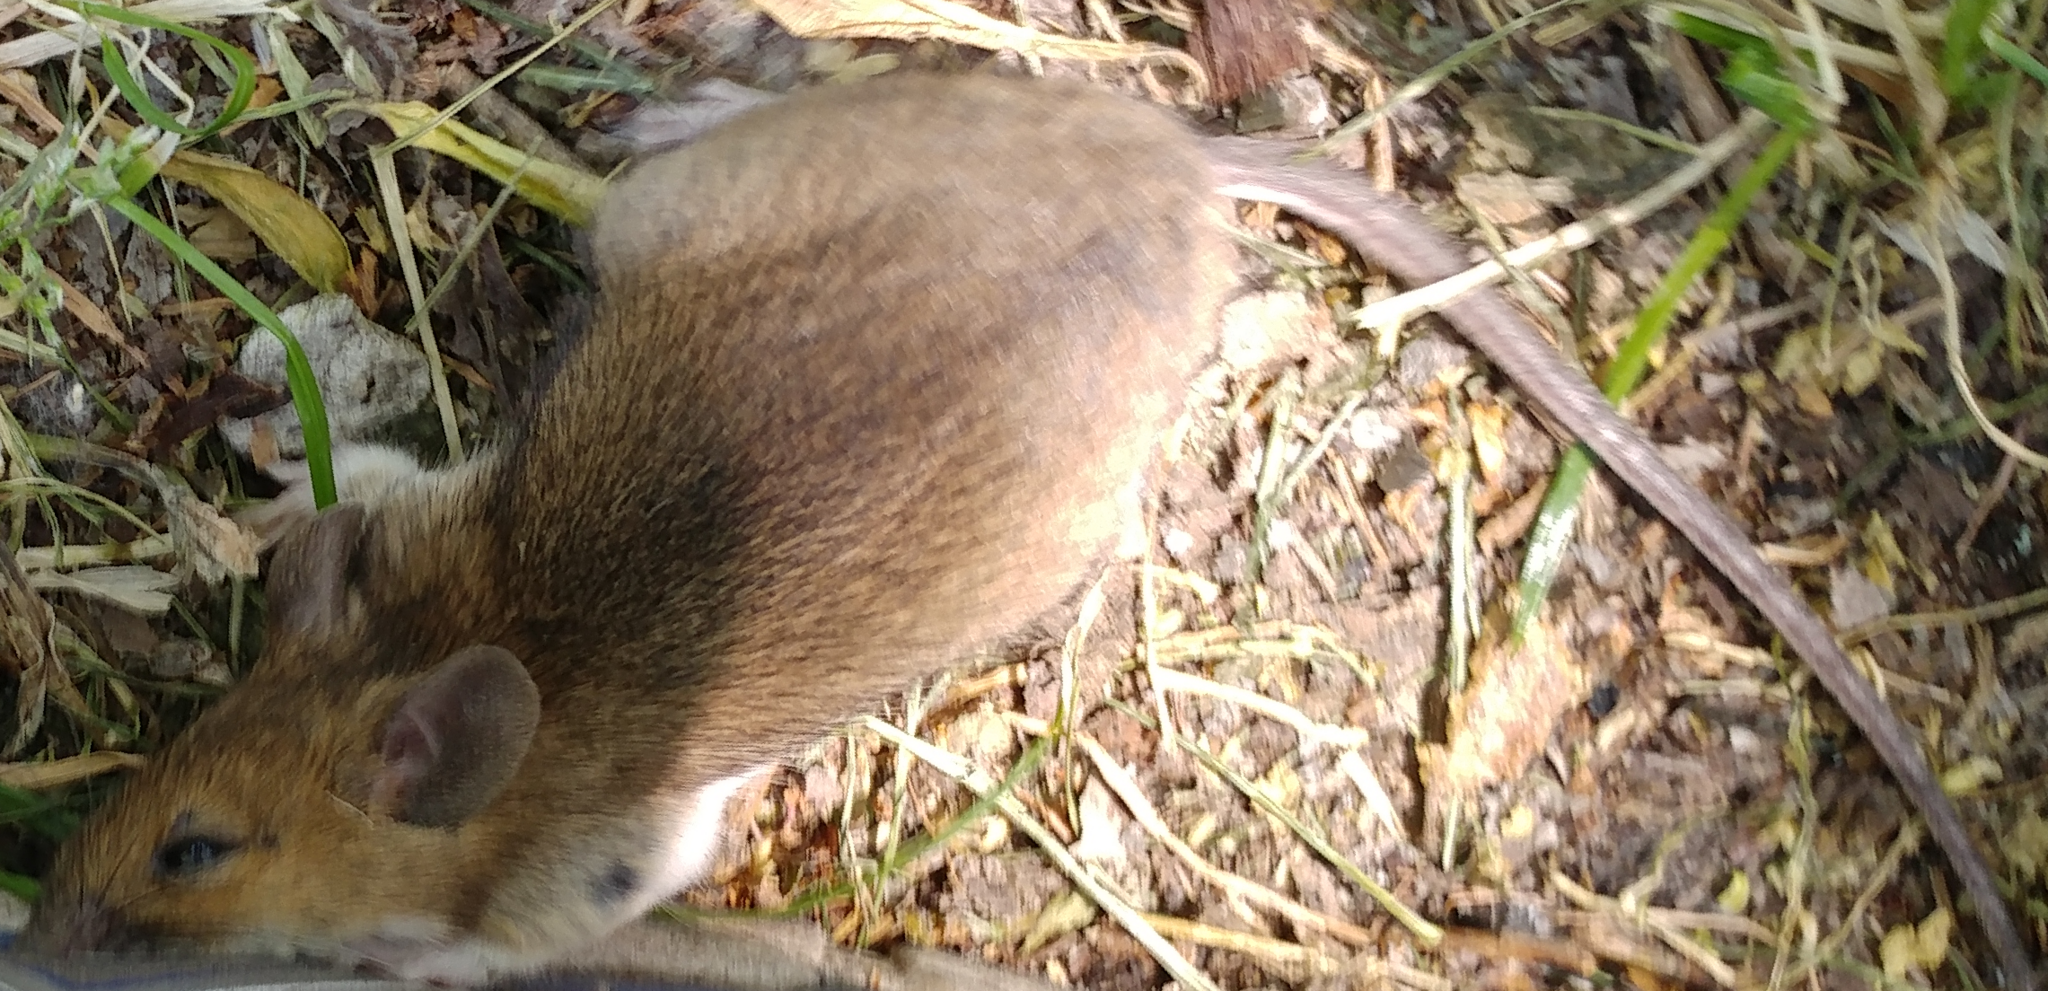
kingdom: Animalia
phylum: Chordata
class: Mammalia
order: Rodentia
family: Muridae
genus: Apodemus
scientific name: Apodemus flavicollis
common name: Yellow-necked field mouse
